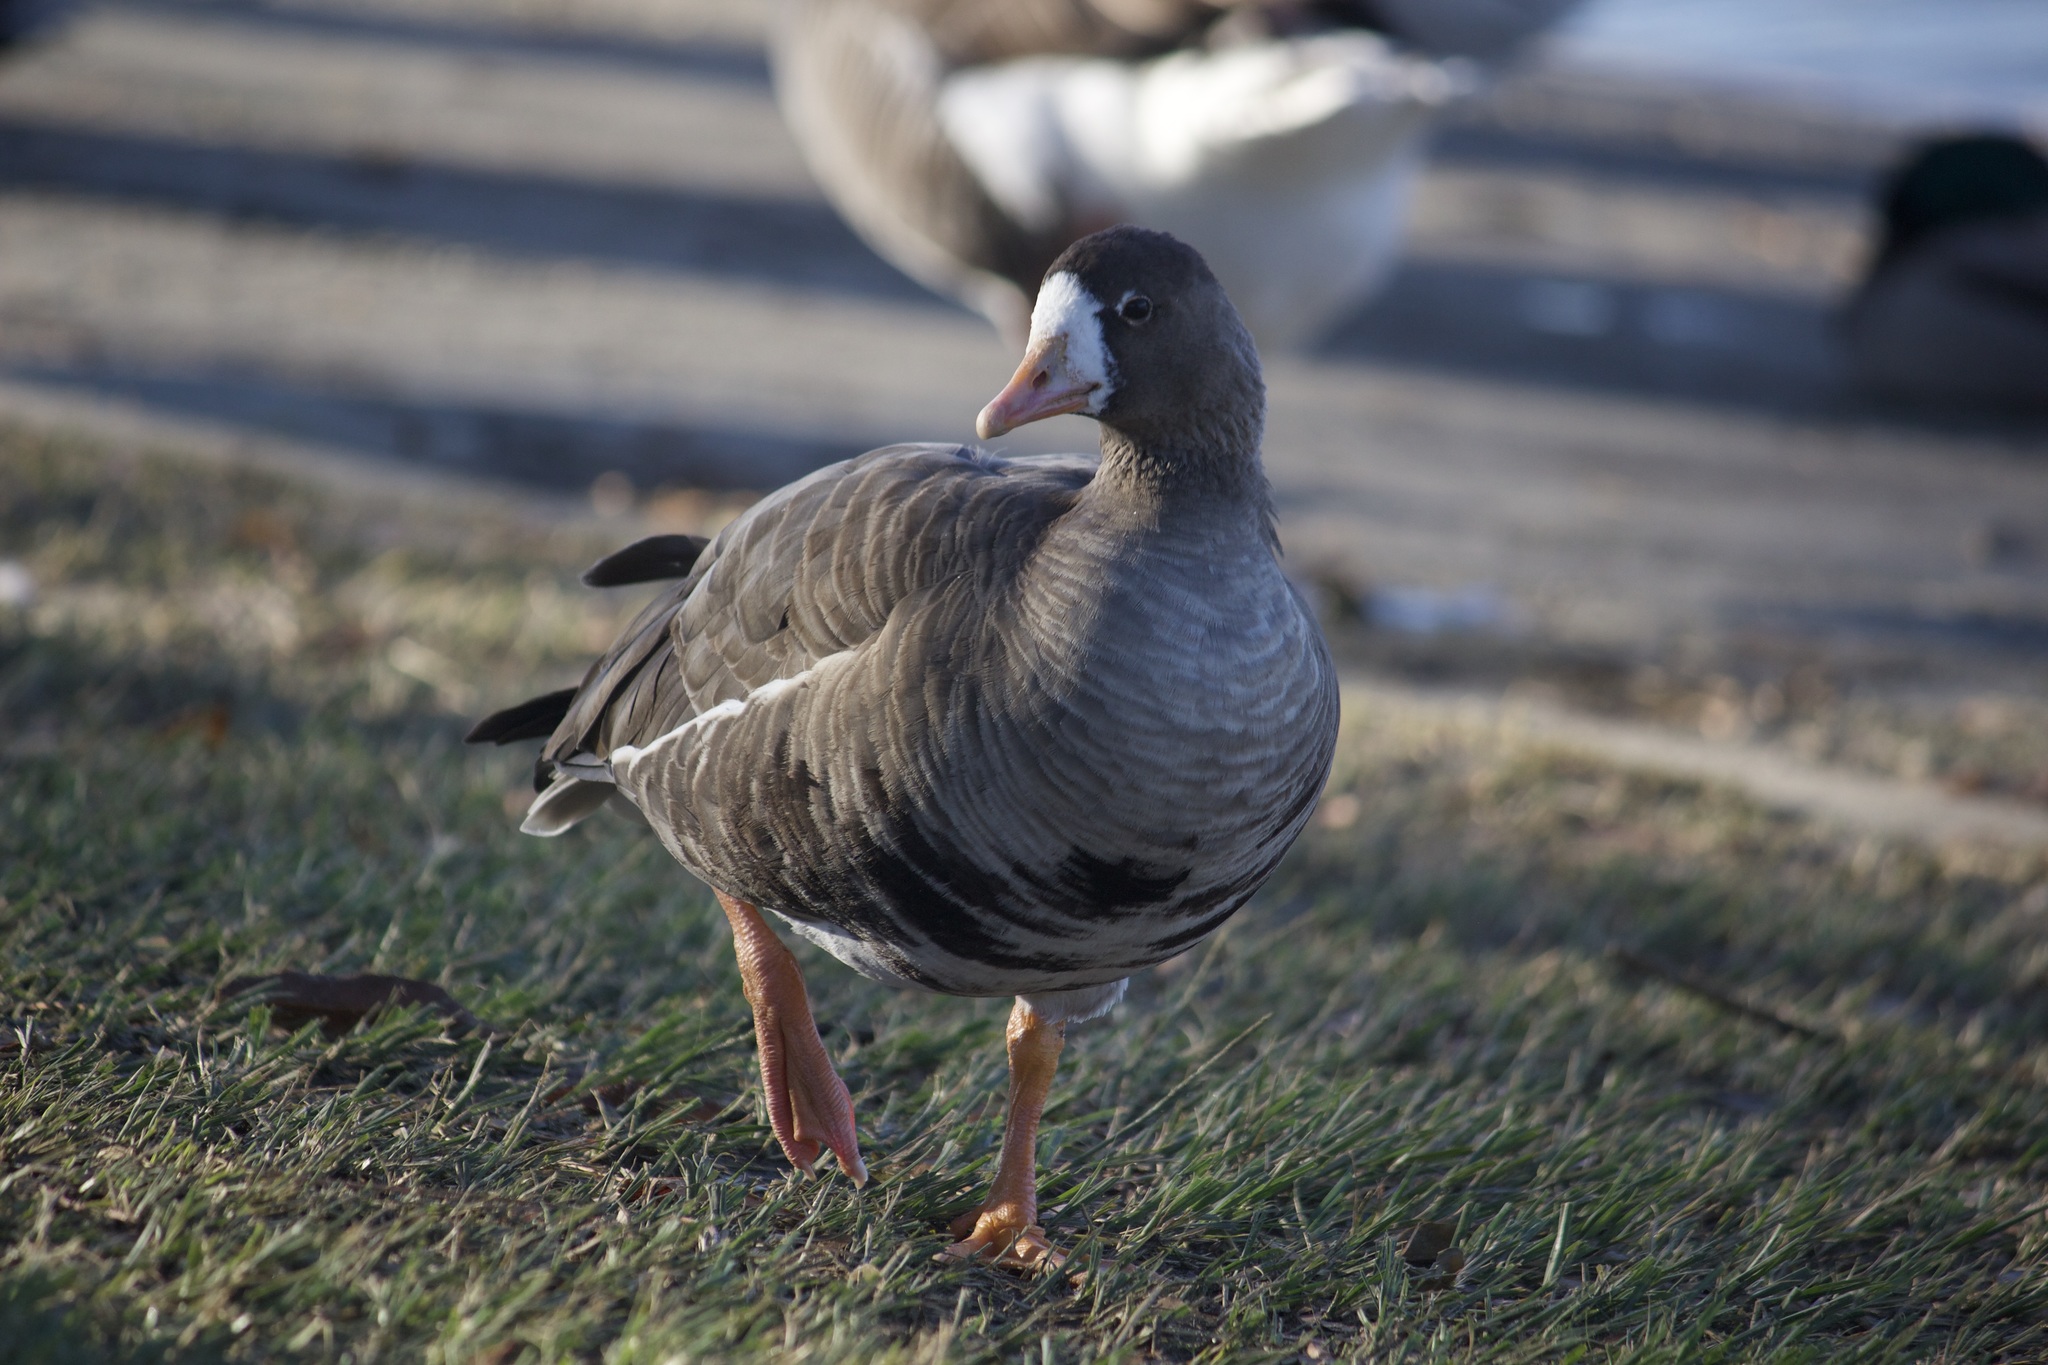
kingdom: Animalia
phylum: Chordata
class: Aves
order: Anseriformes
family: Anatidae
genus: Anser
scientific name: Anser albifrons
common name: Greater white-fronted goose
